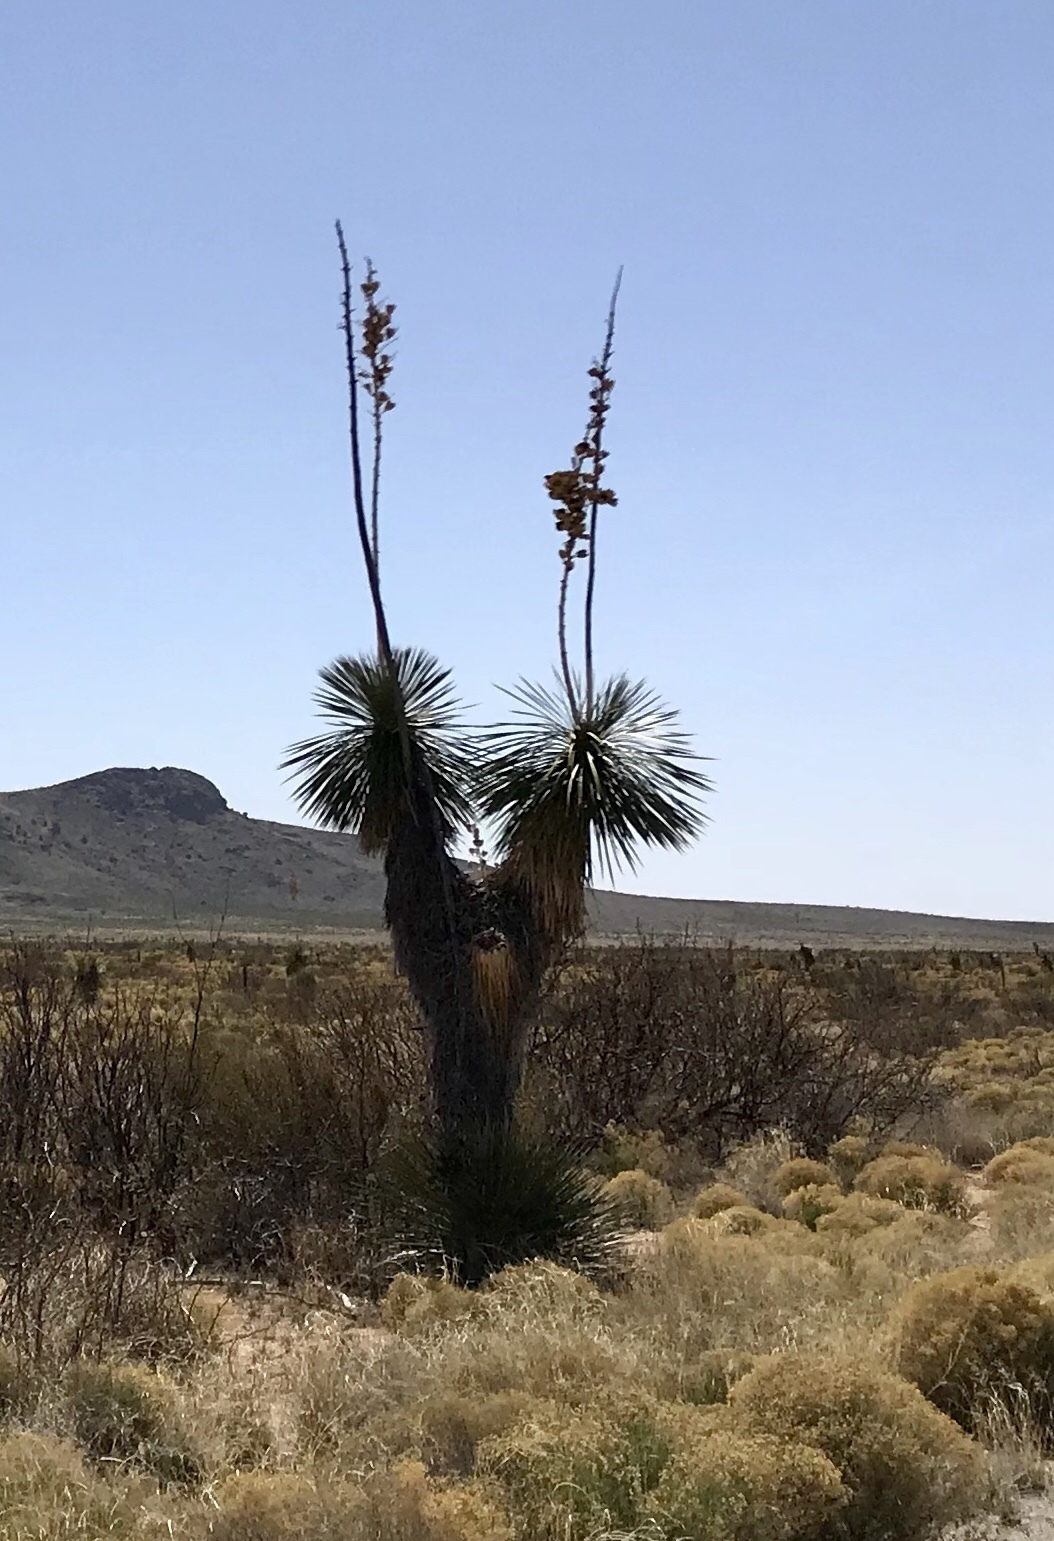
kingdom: Plantae
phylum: Tracheophyta
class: Liliopsida
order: Asparagales
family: Asparagaceae
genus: Yucca
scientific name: Yucca elata
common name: Palmella
